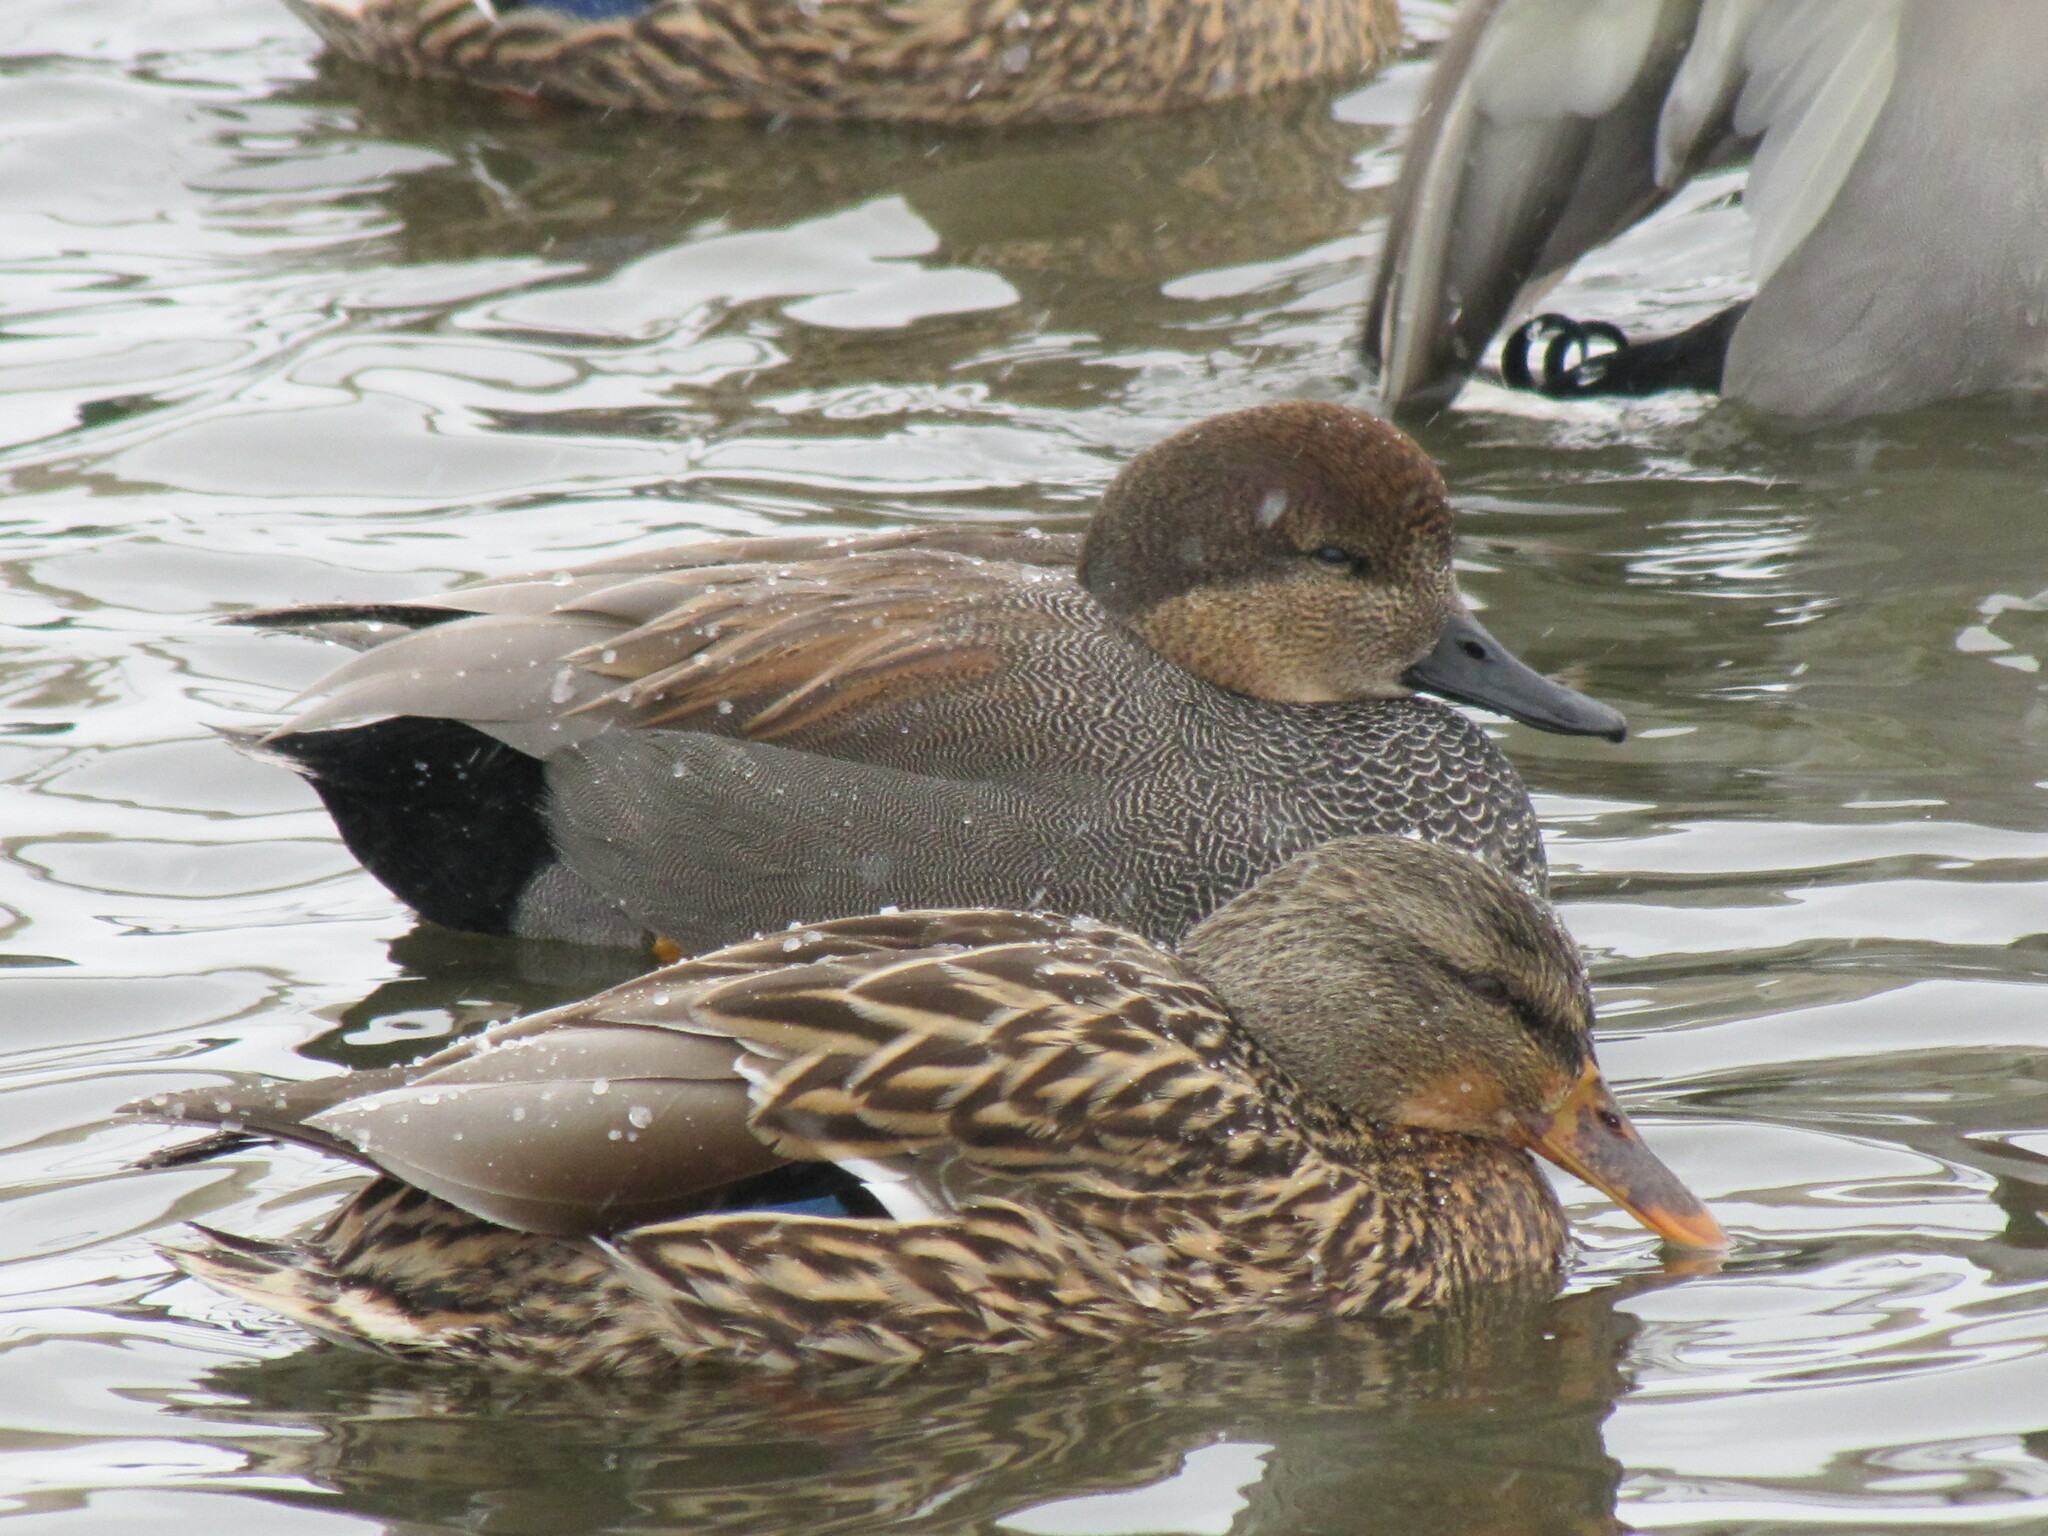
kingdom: Animalia
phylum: Chordata
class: Aves
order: Anseriformes
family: Anatidae
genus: Mareca
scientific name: Mareca strepera
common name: Gadwall
